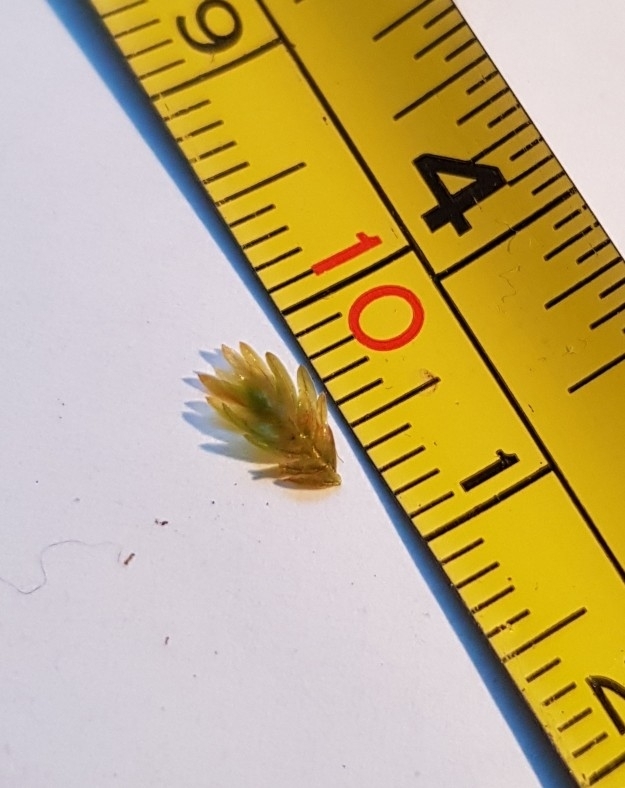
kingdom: Plantae
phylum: Bryophyta
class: Bryopsida
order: Dicranales
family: Fissidentaceae
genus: Fissidens
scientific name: Fissidens dubius
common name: Rock pocket moss
